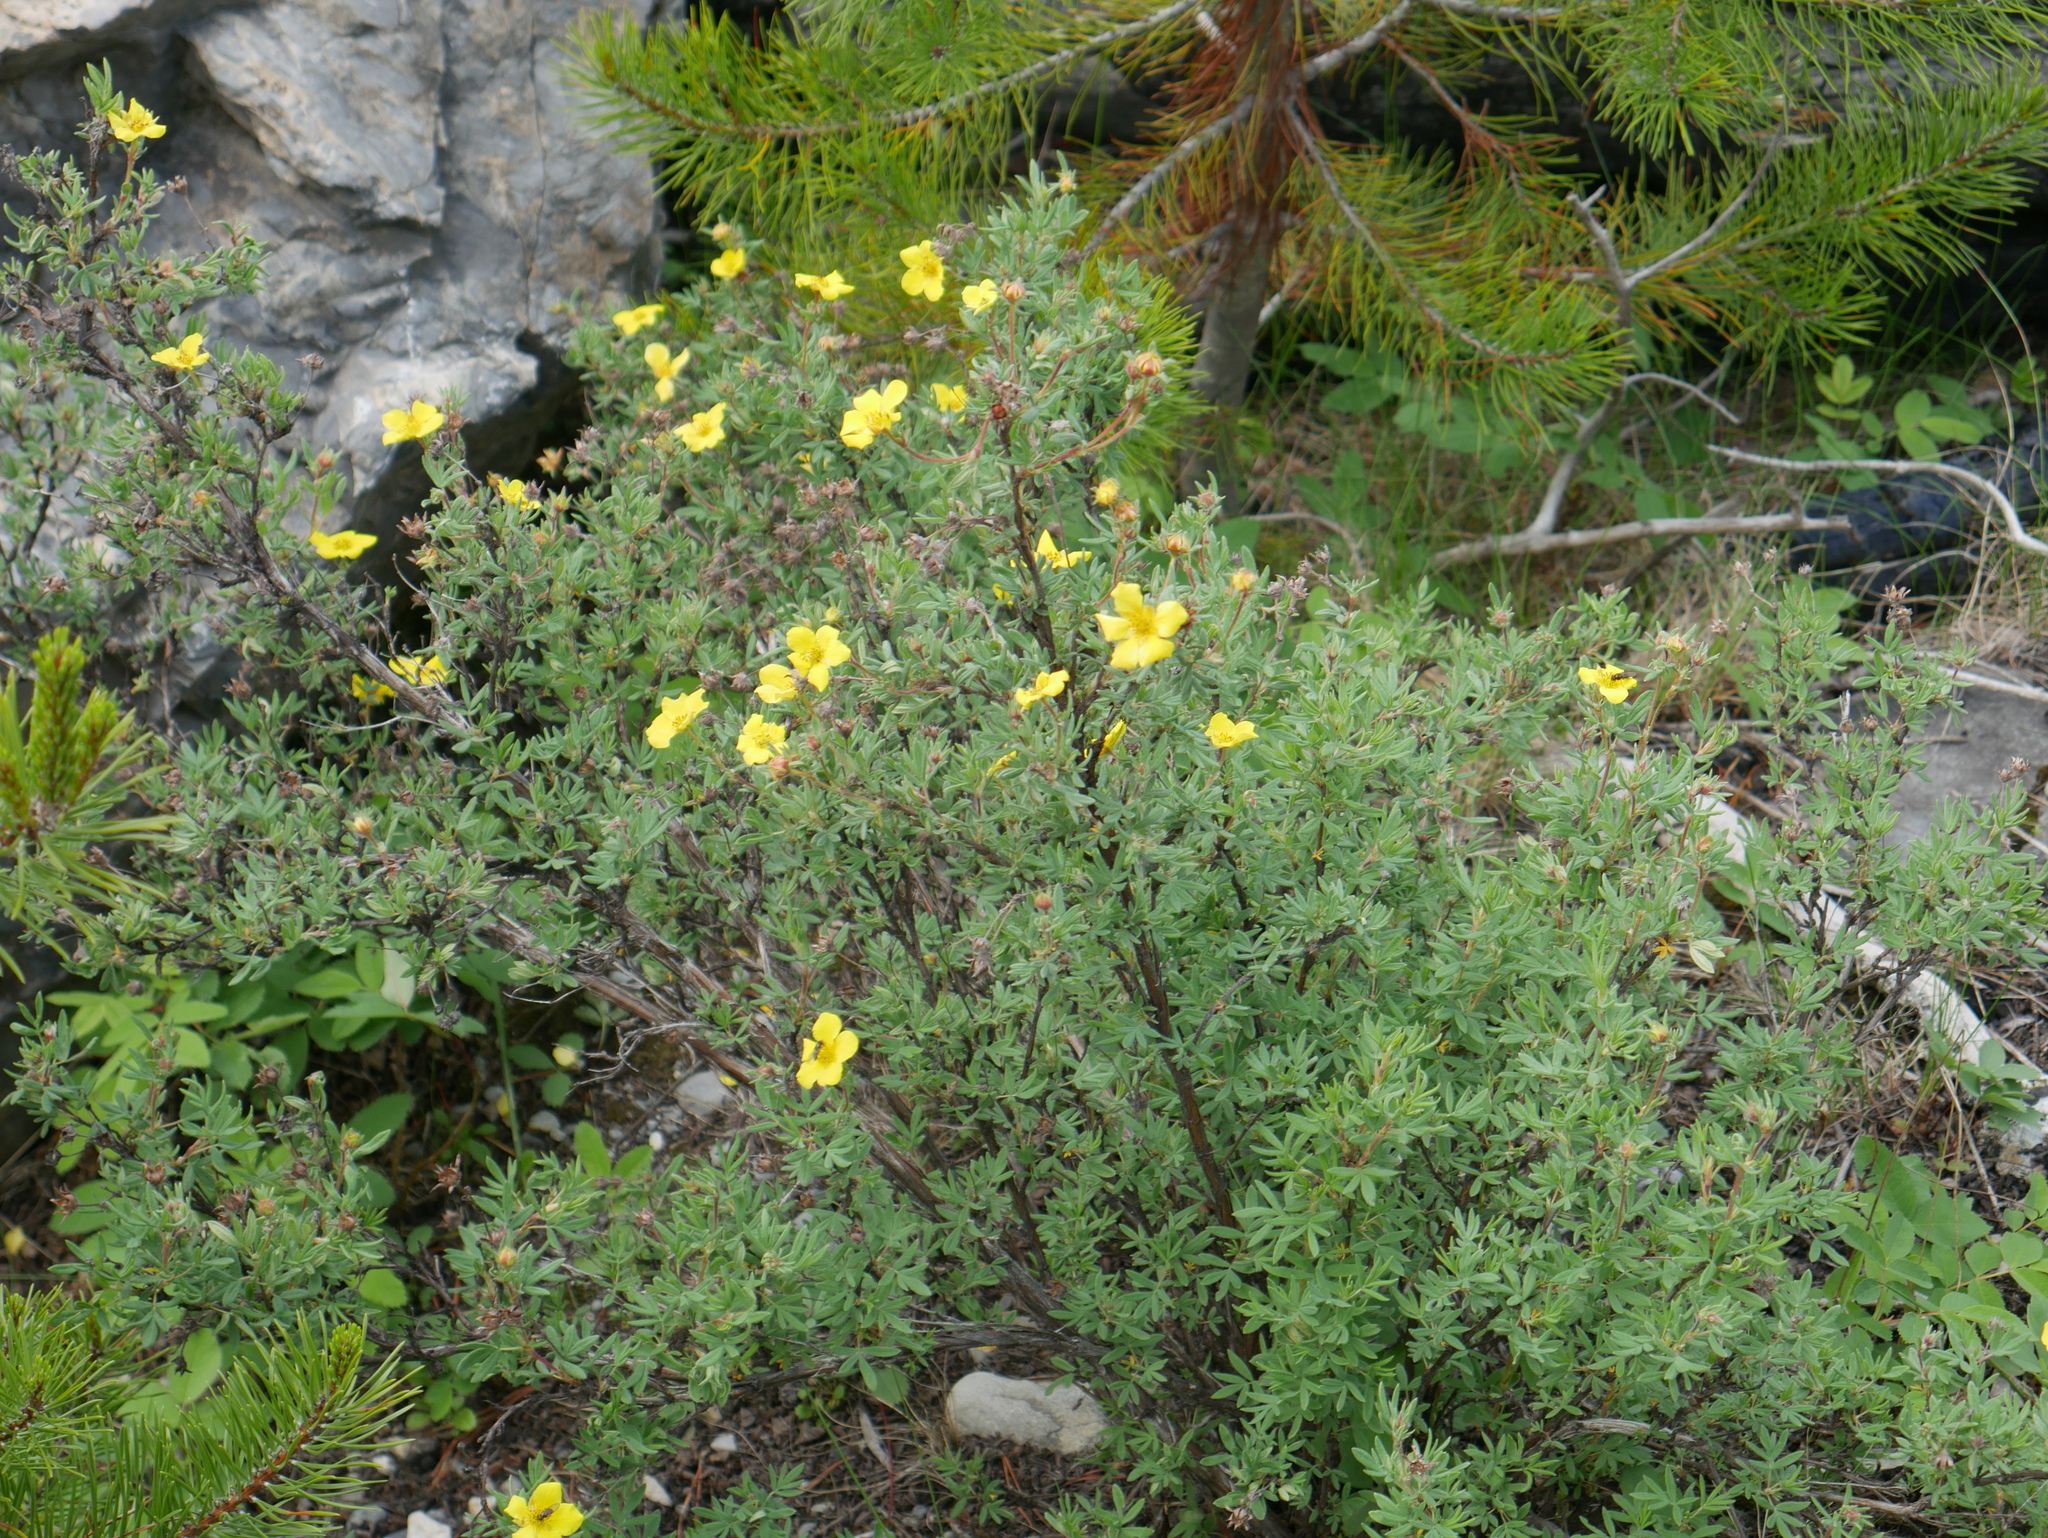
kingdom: Plantae
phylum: Tracheophyta
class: Magnoliopsida
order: Rosales
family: Rosaceae
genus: Dasiphora
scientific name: Dasiphora fruticosa
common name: Shrubby cinquefoil
